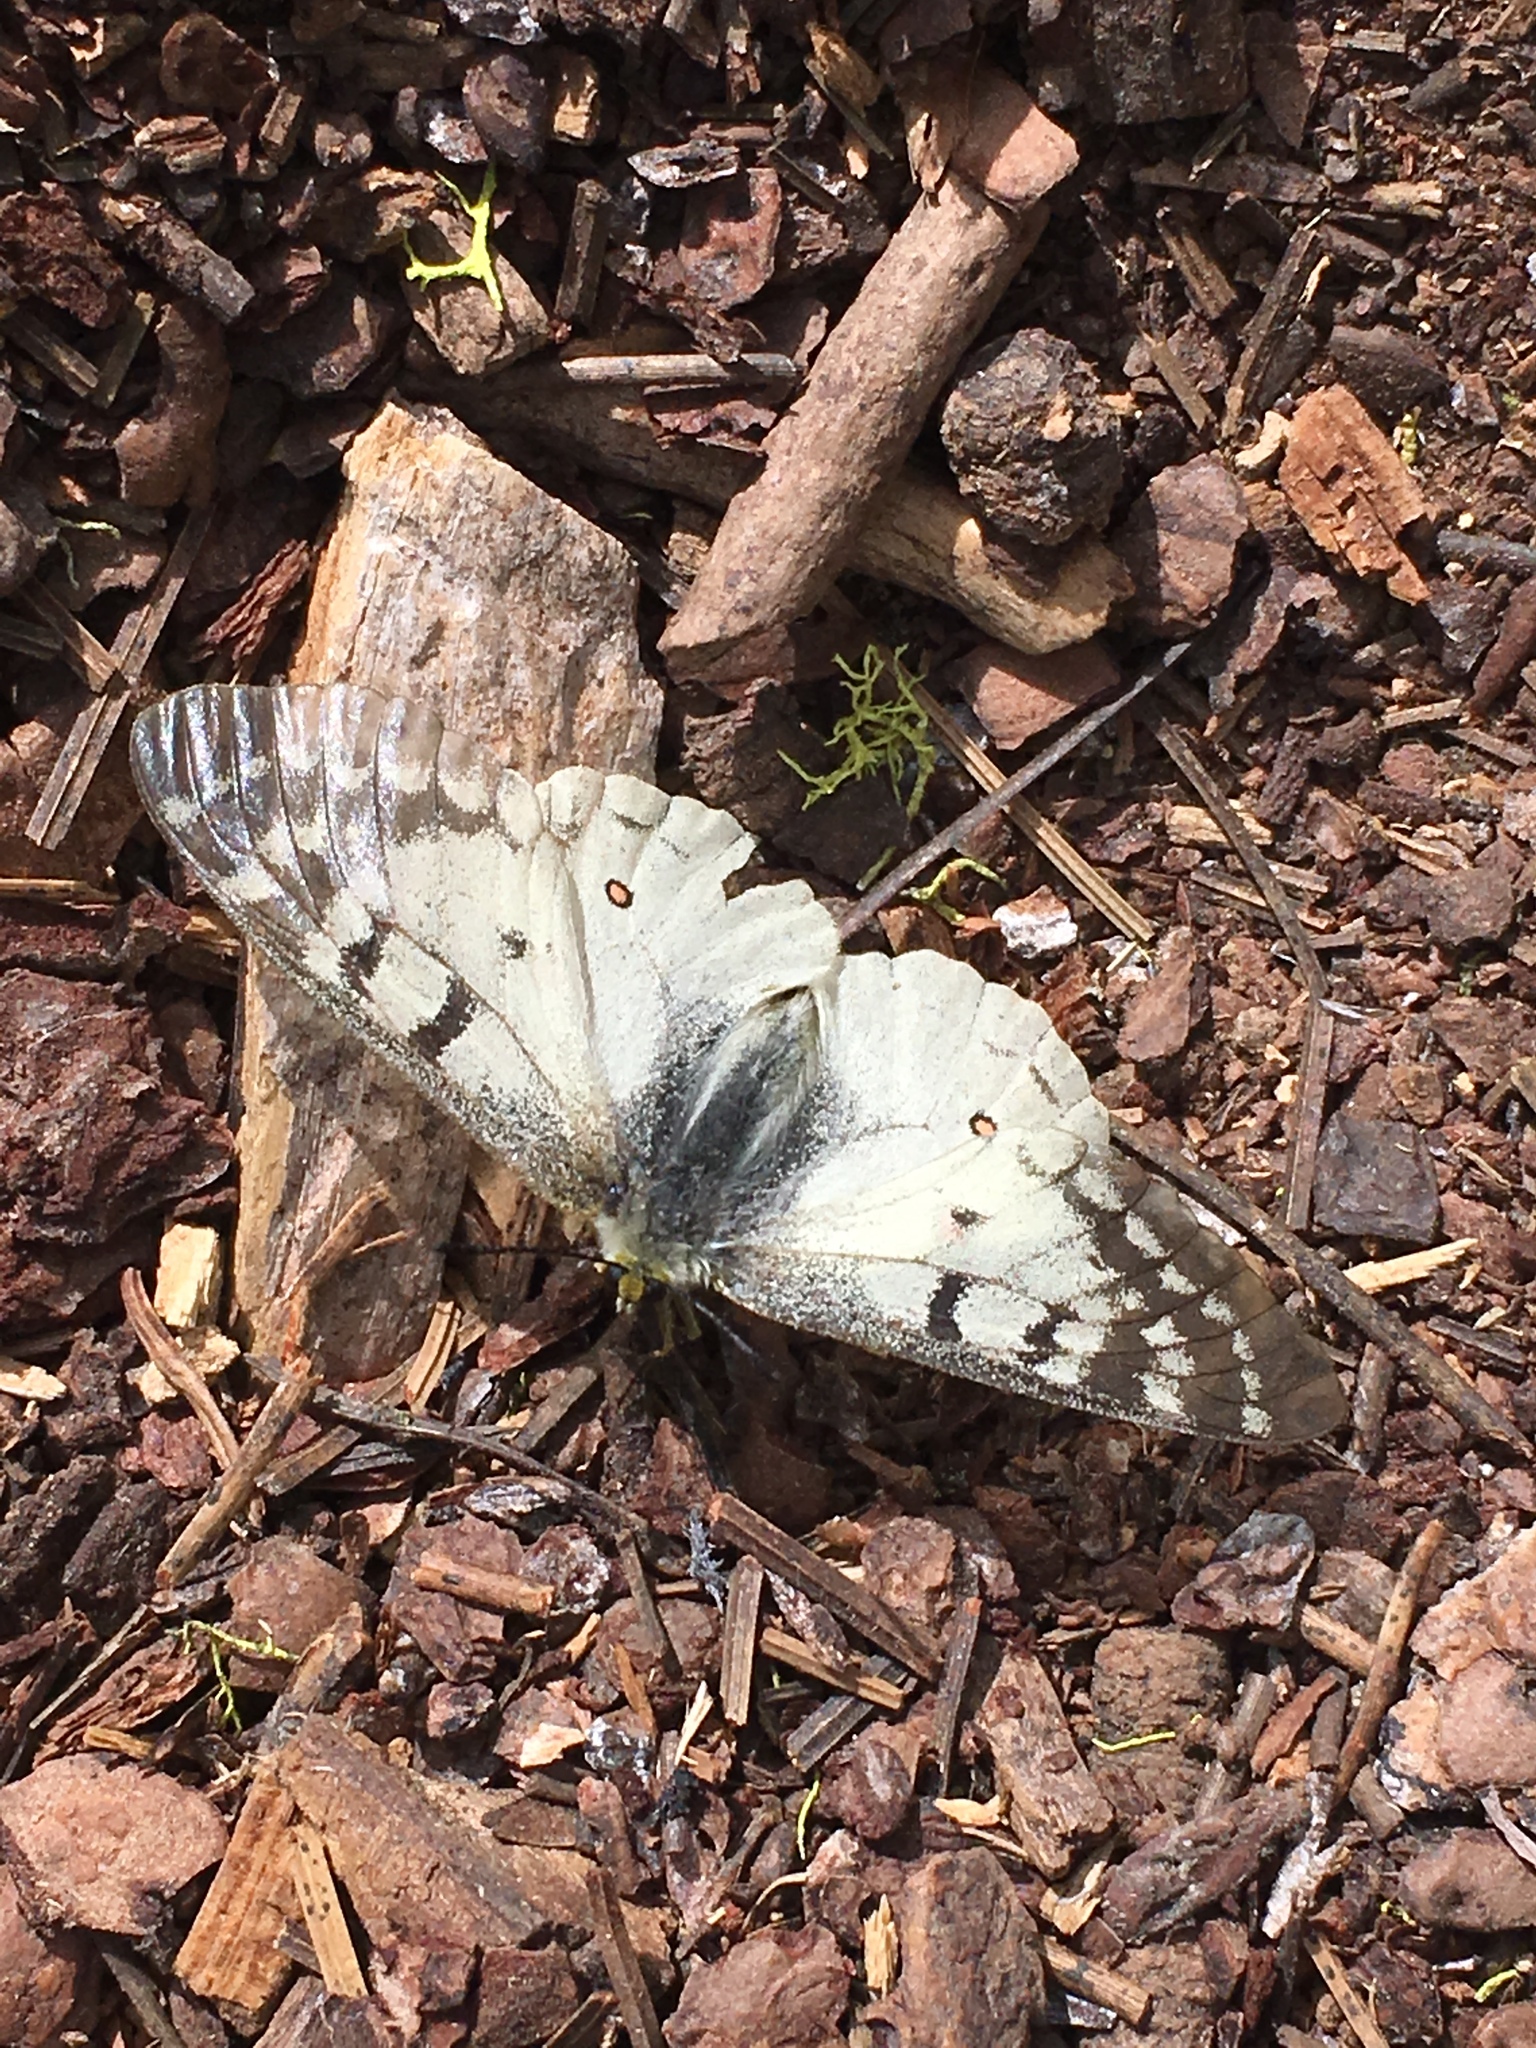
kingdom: Animalia
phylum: Arthropoda
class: Insecta
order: Lepidoptera
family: Papilionidae
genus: Parnassius
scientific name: Parnassius clodius
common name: American apollo
